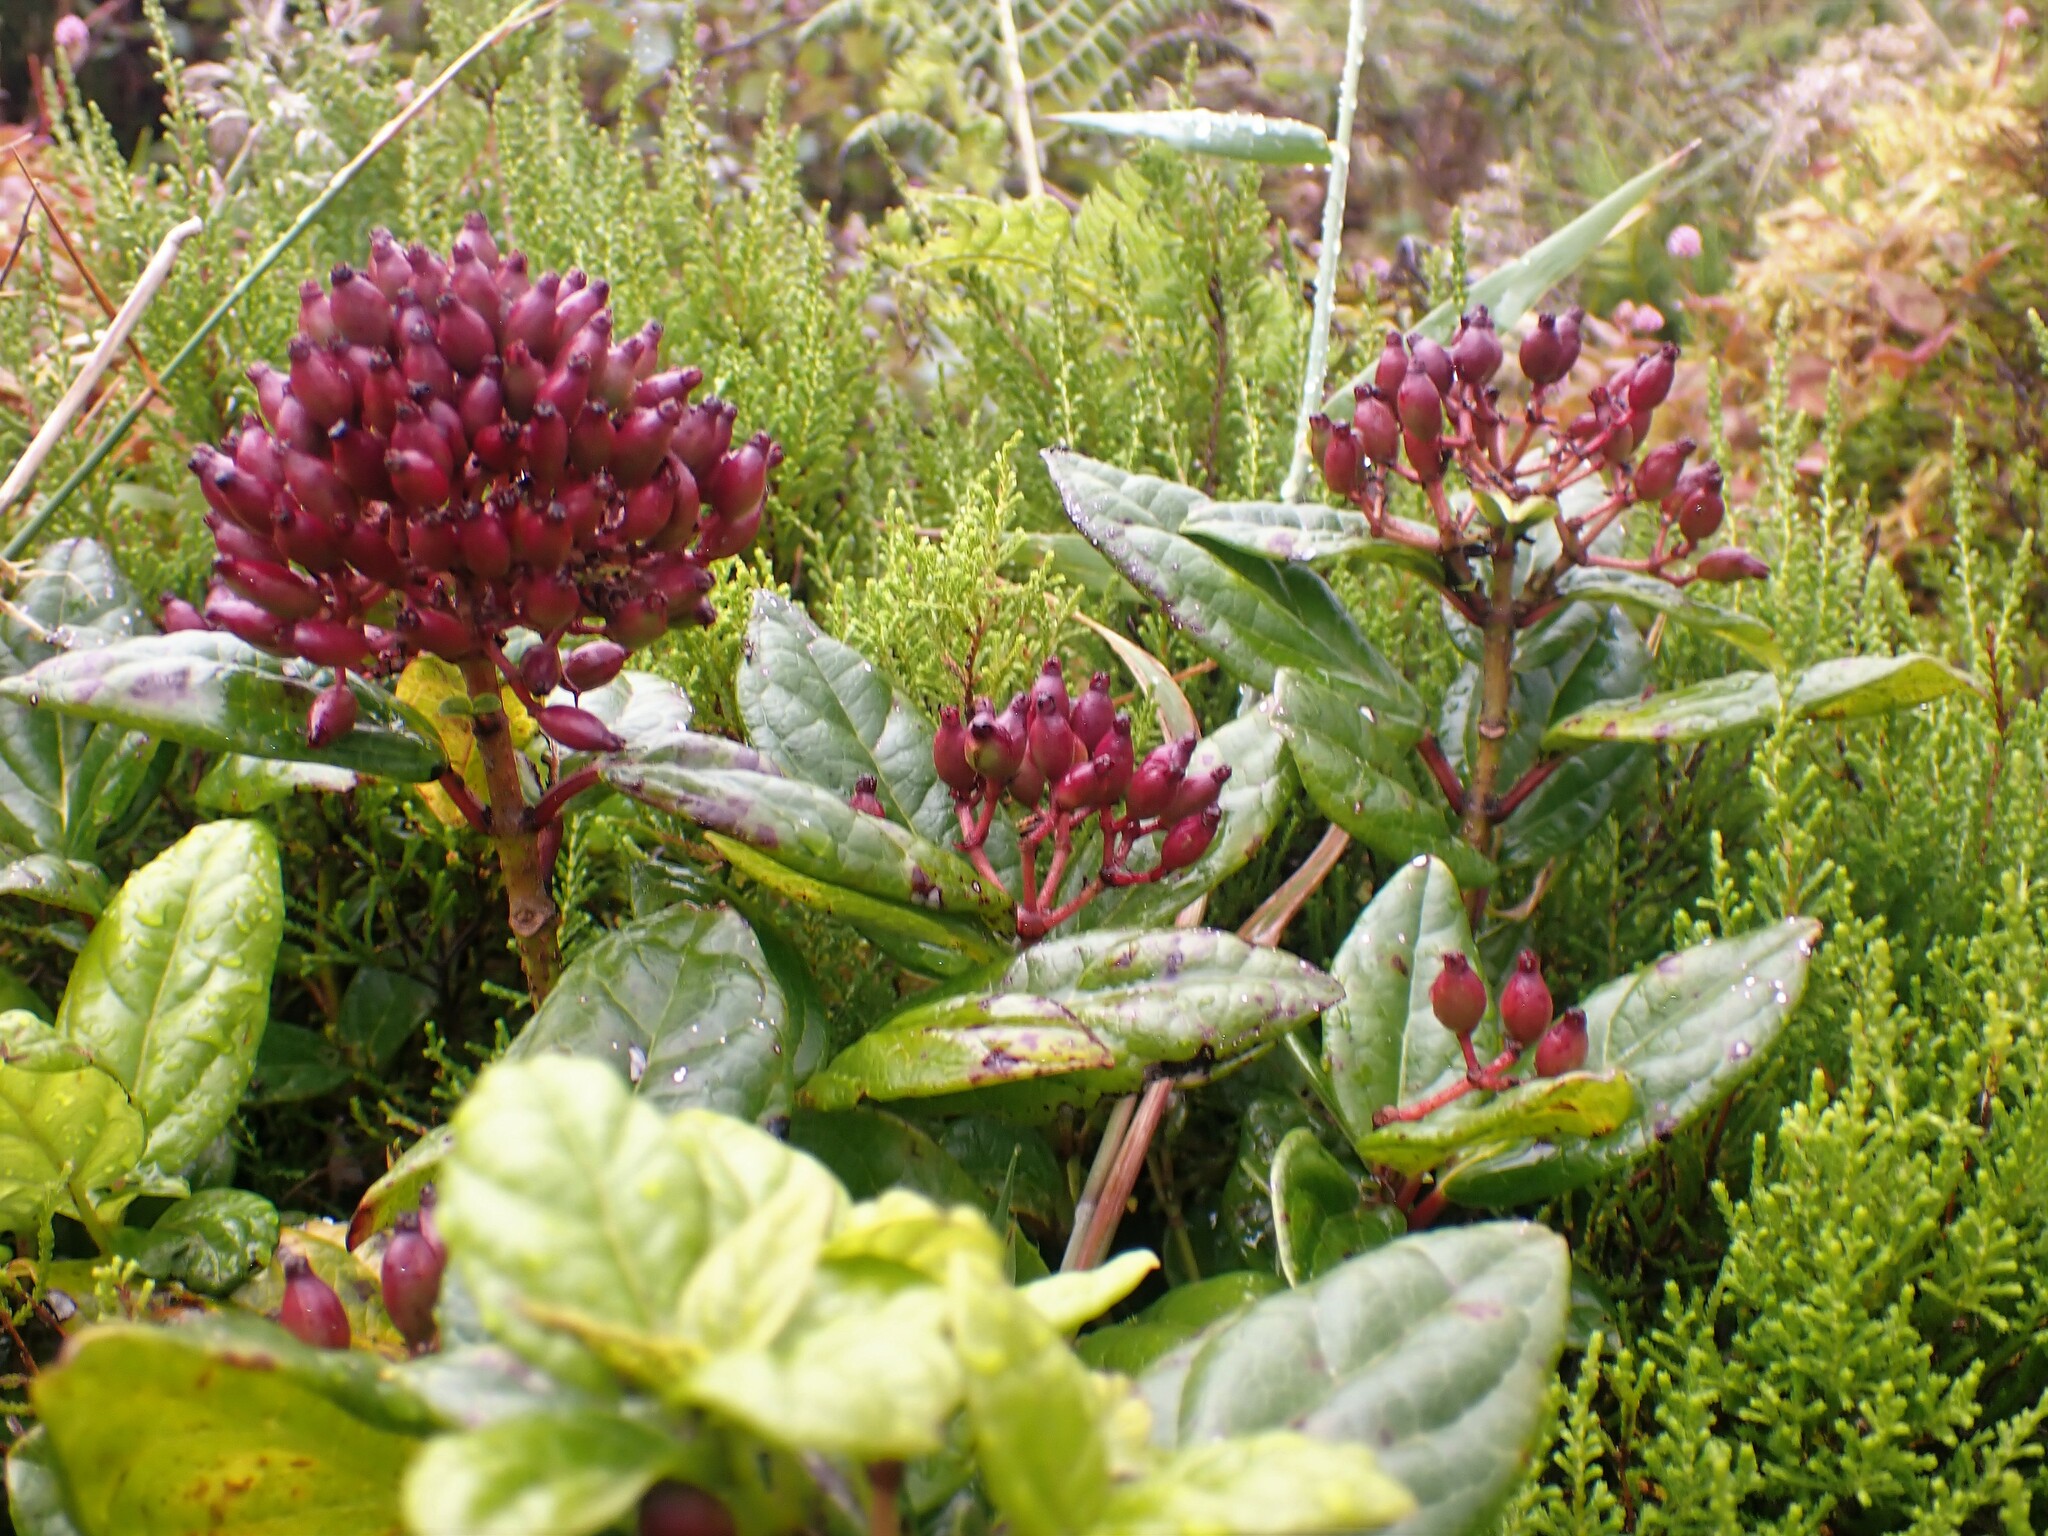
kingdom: Plantae
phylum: Tracheophyta
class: Magnoliopsida
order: Dipsacales
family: Viburnaceae
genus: Viburnum
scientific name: Viburnum treleasei
